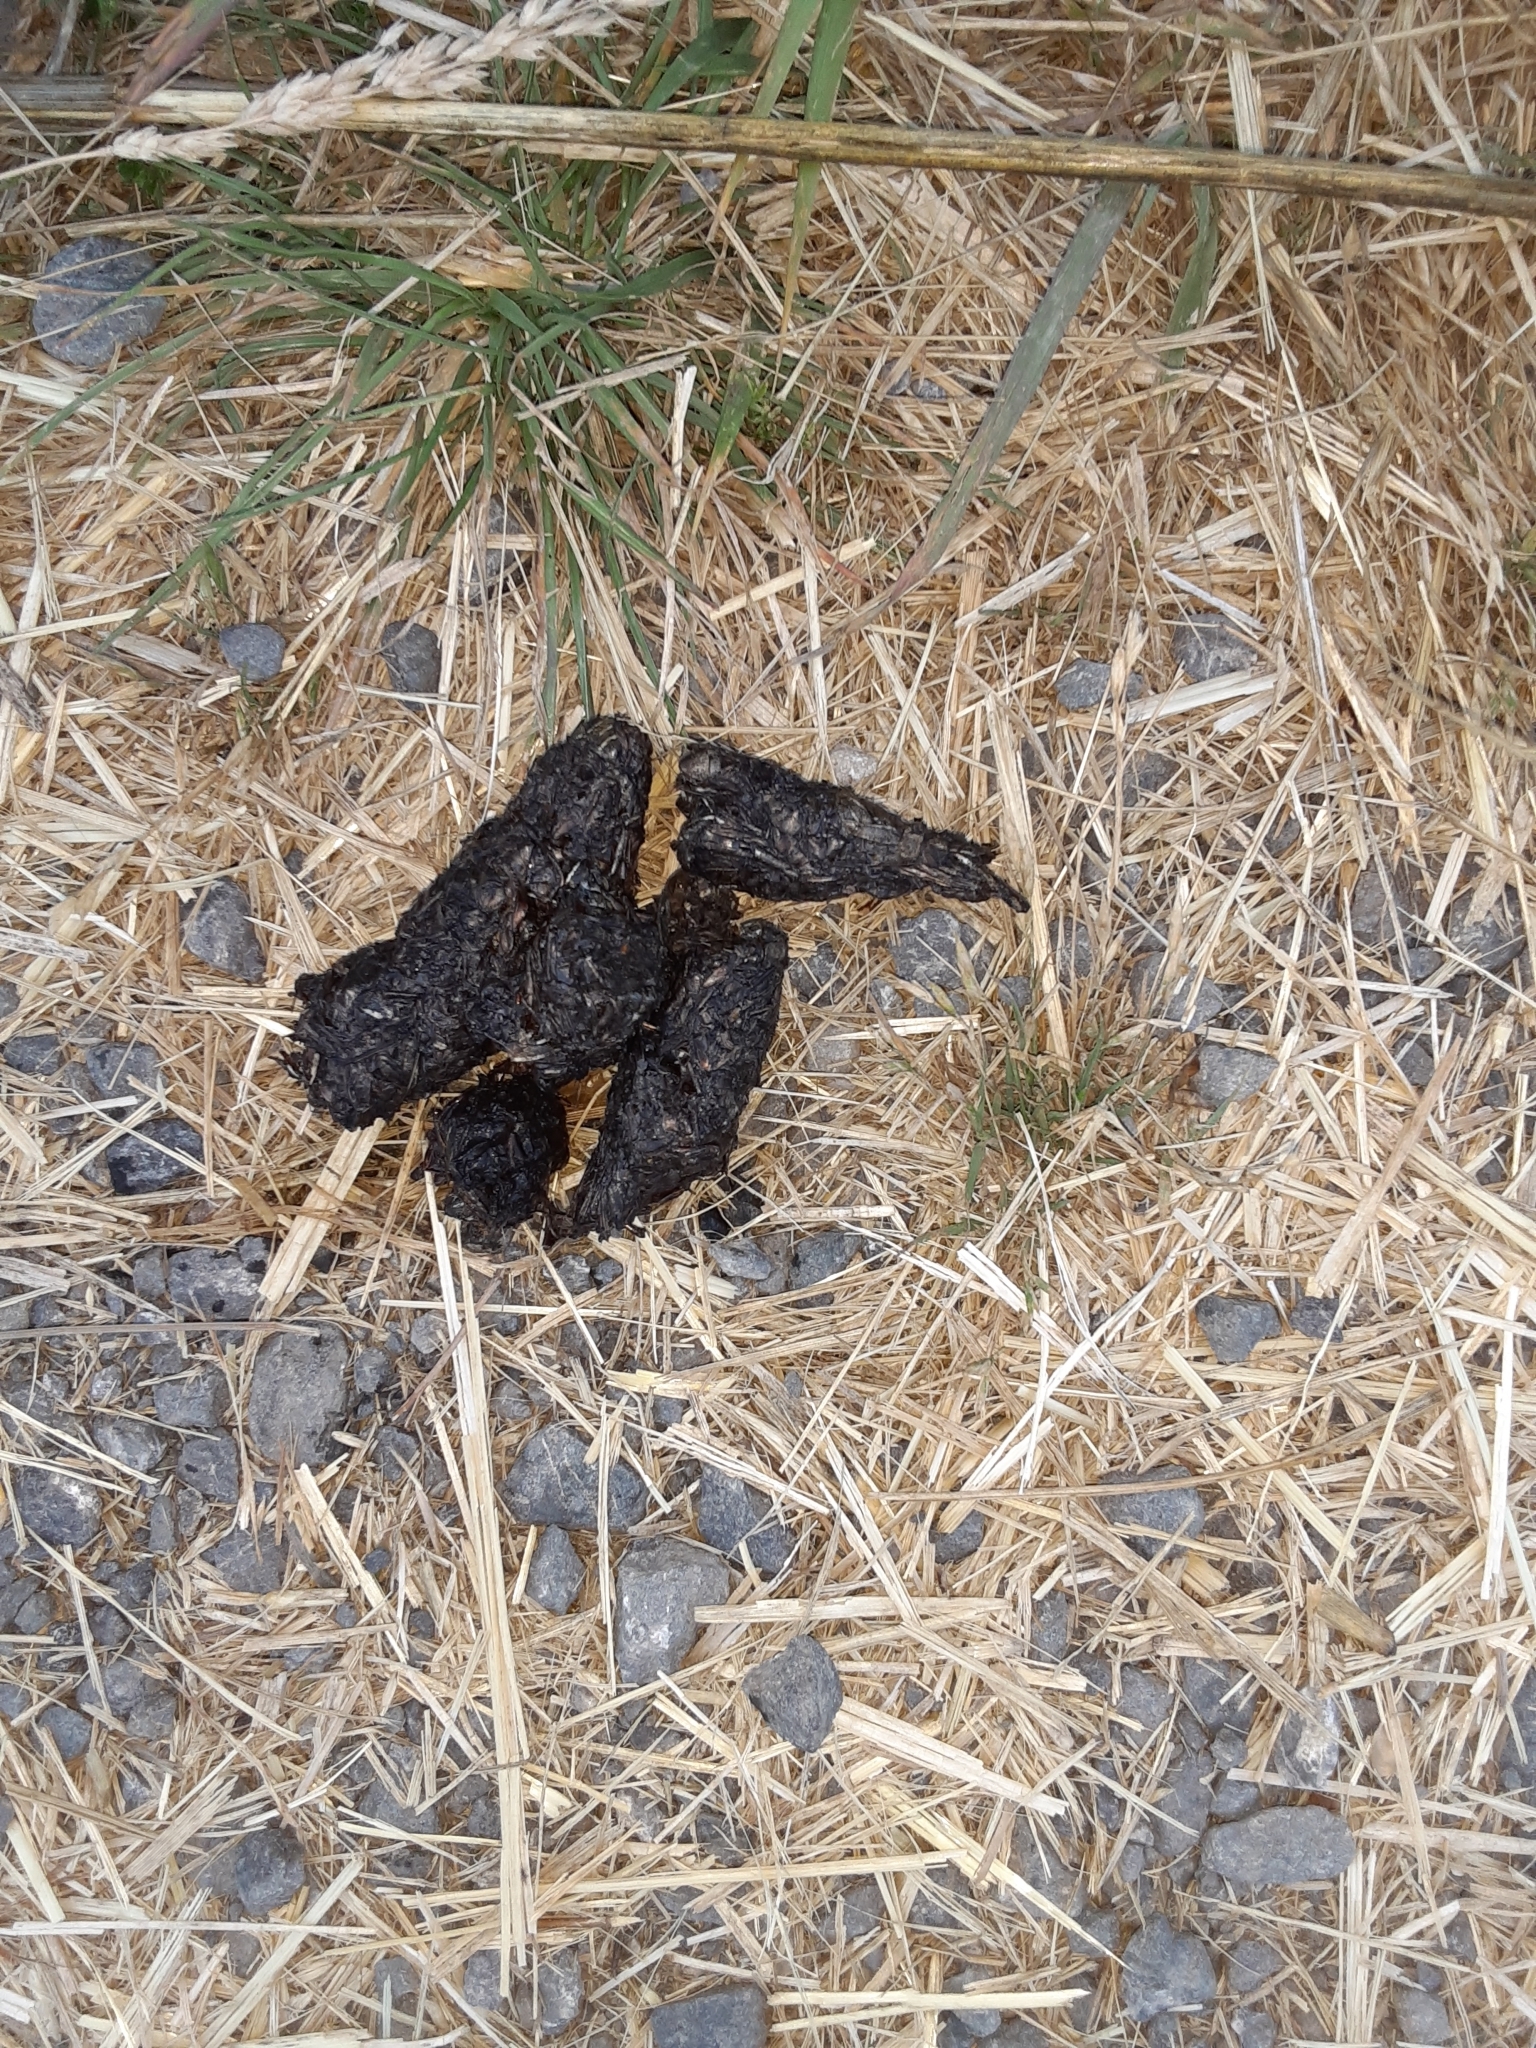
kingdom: Animalia
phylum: Chordata
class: Mammalia
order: Carnivora
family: Canidae
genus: Vulpes
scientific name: Vulpes vulpes
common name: Red fox
